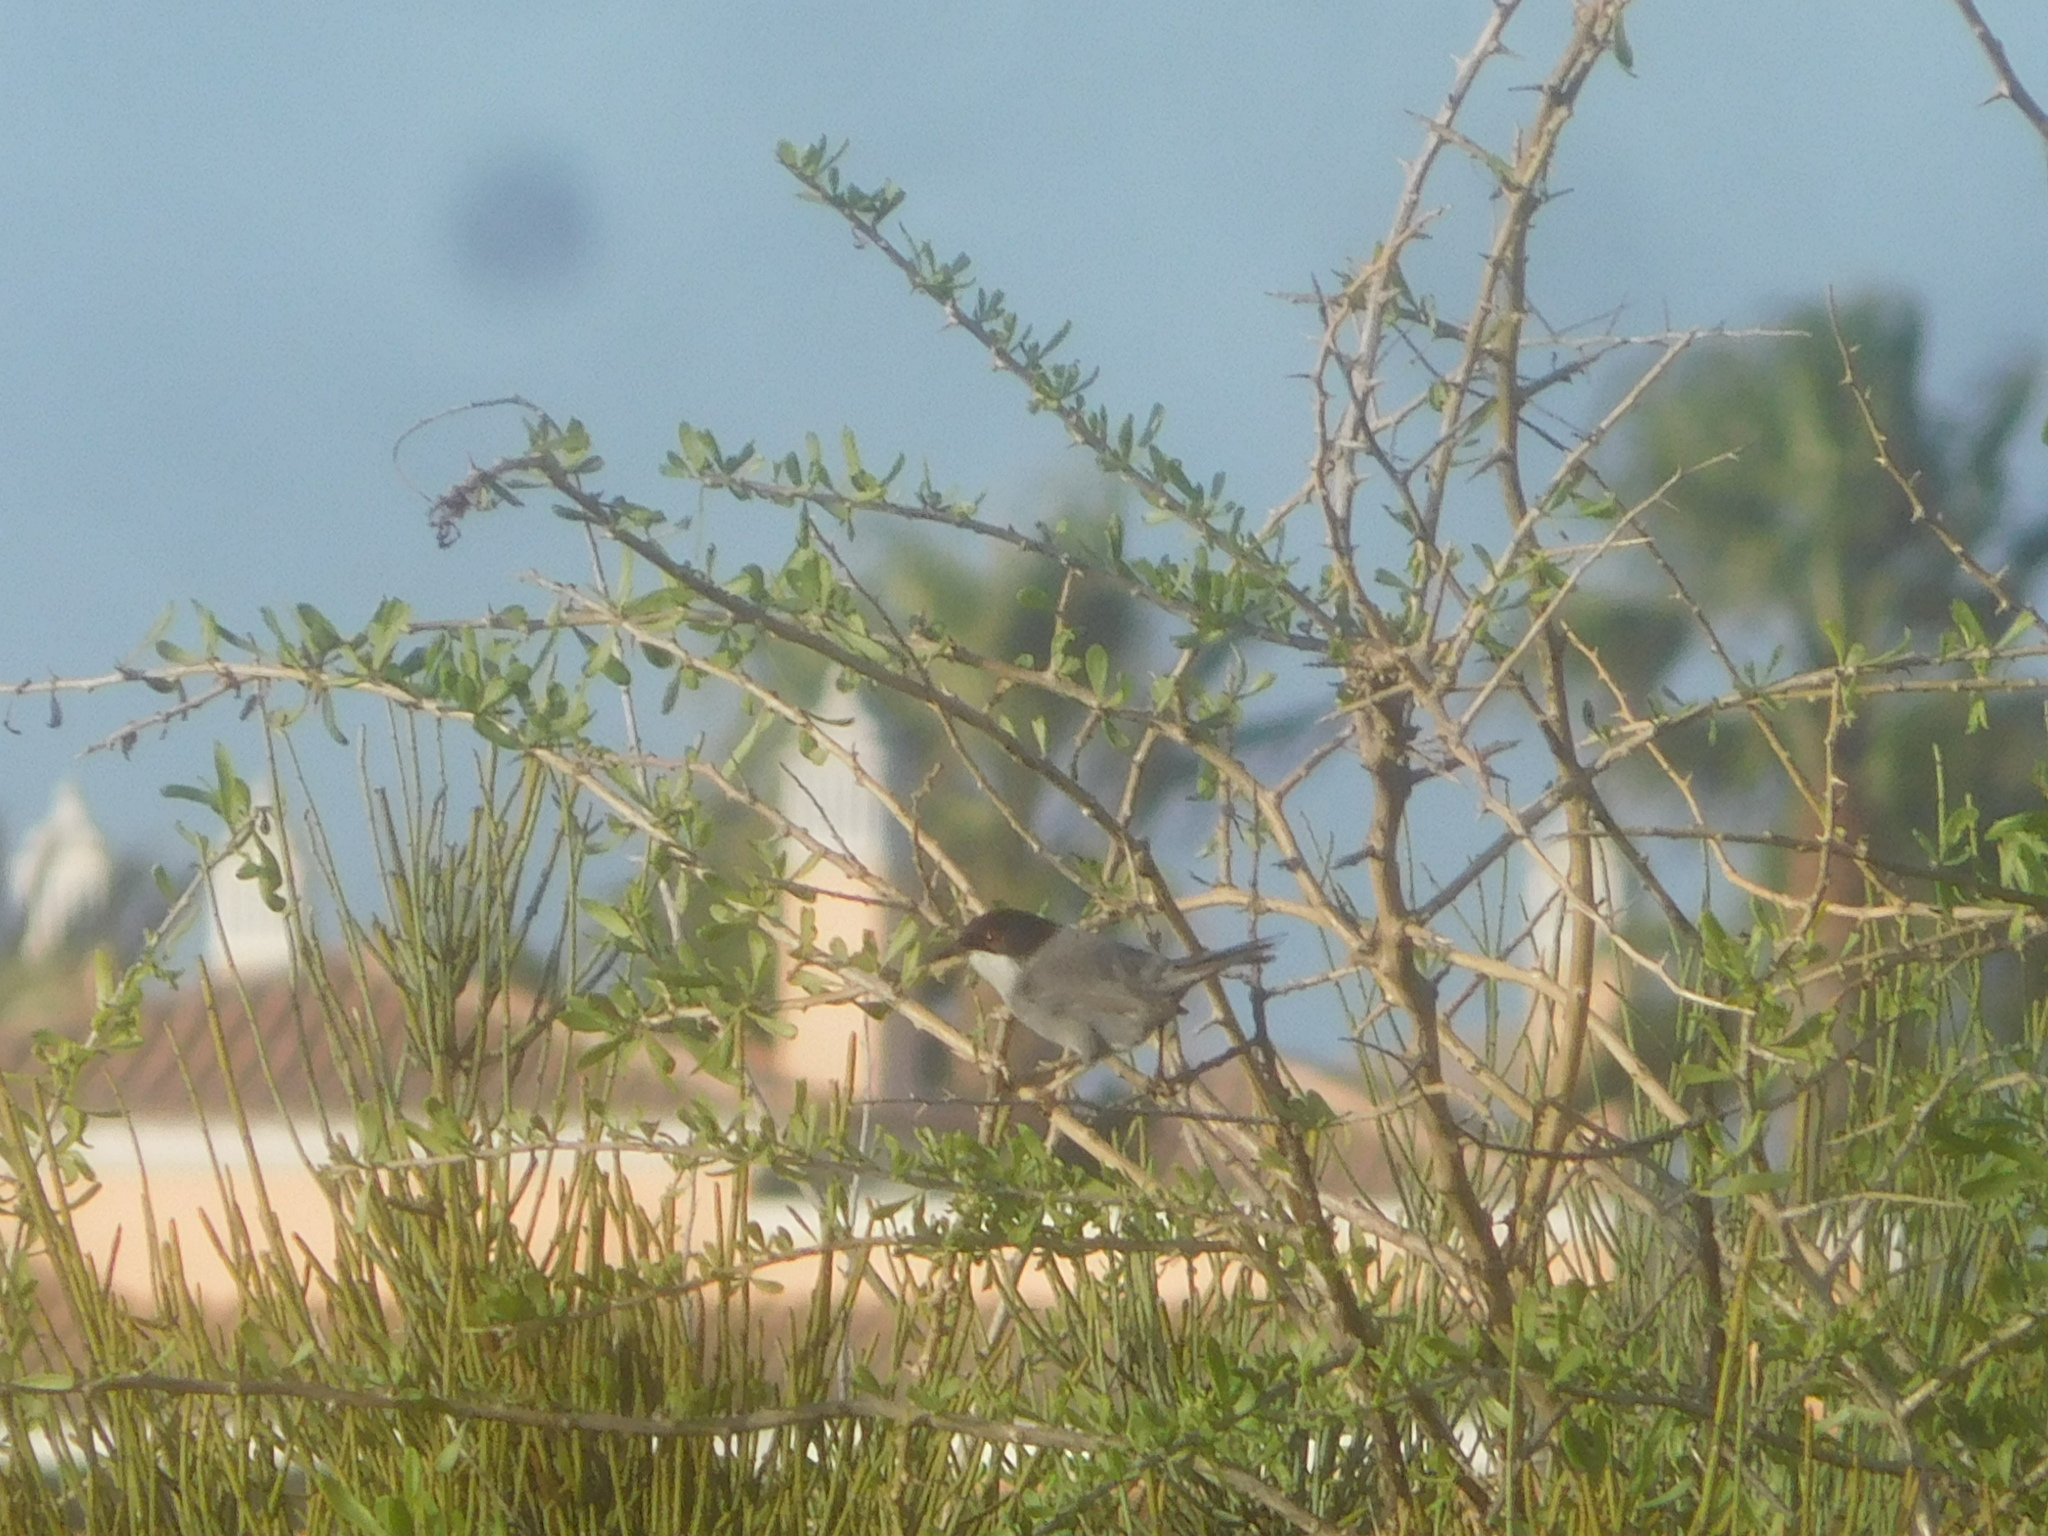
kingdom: Animalia
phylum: Chordata
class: Aves
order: Passeriformes
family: Sylviidae
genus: Curruca
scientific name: Curruca melanocephala
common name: Sardinian warbler
